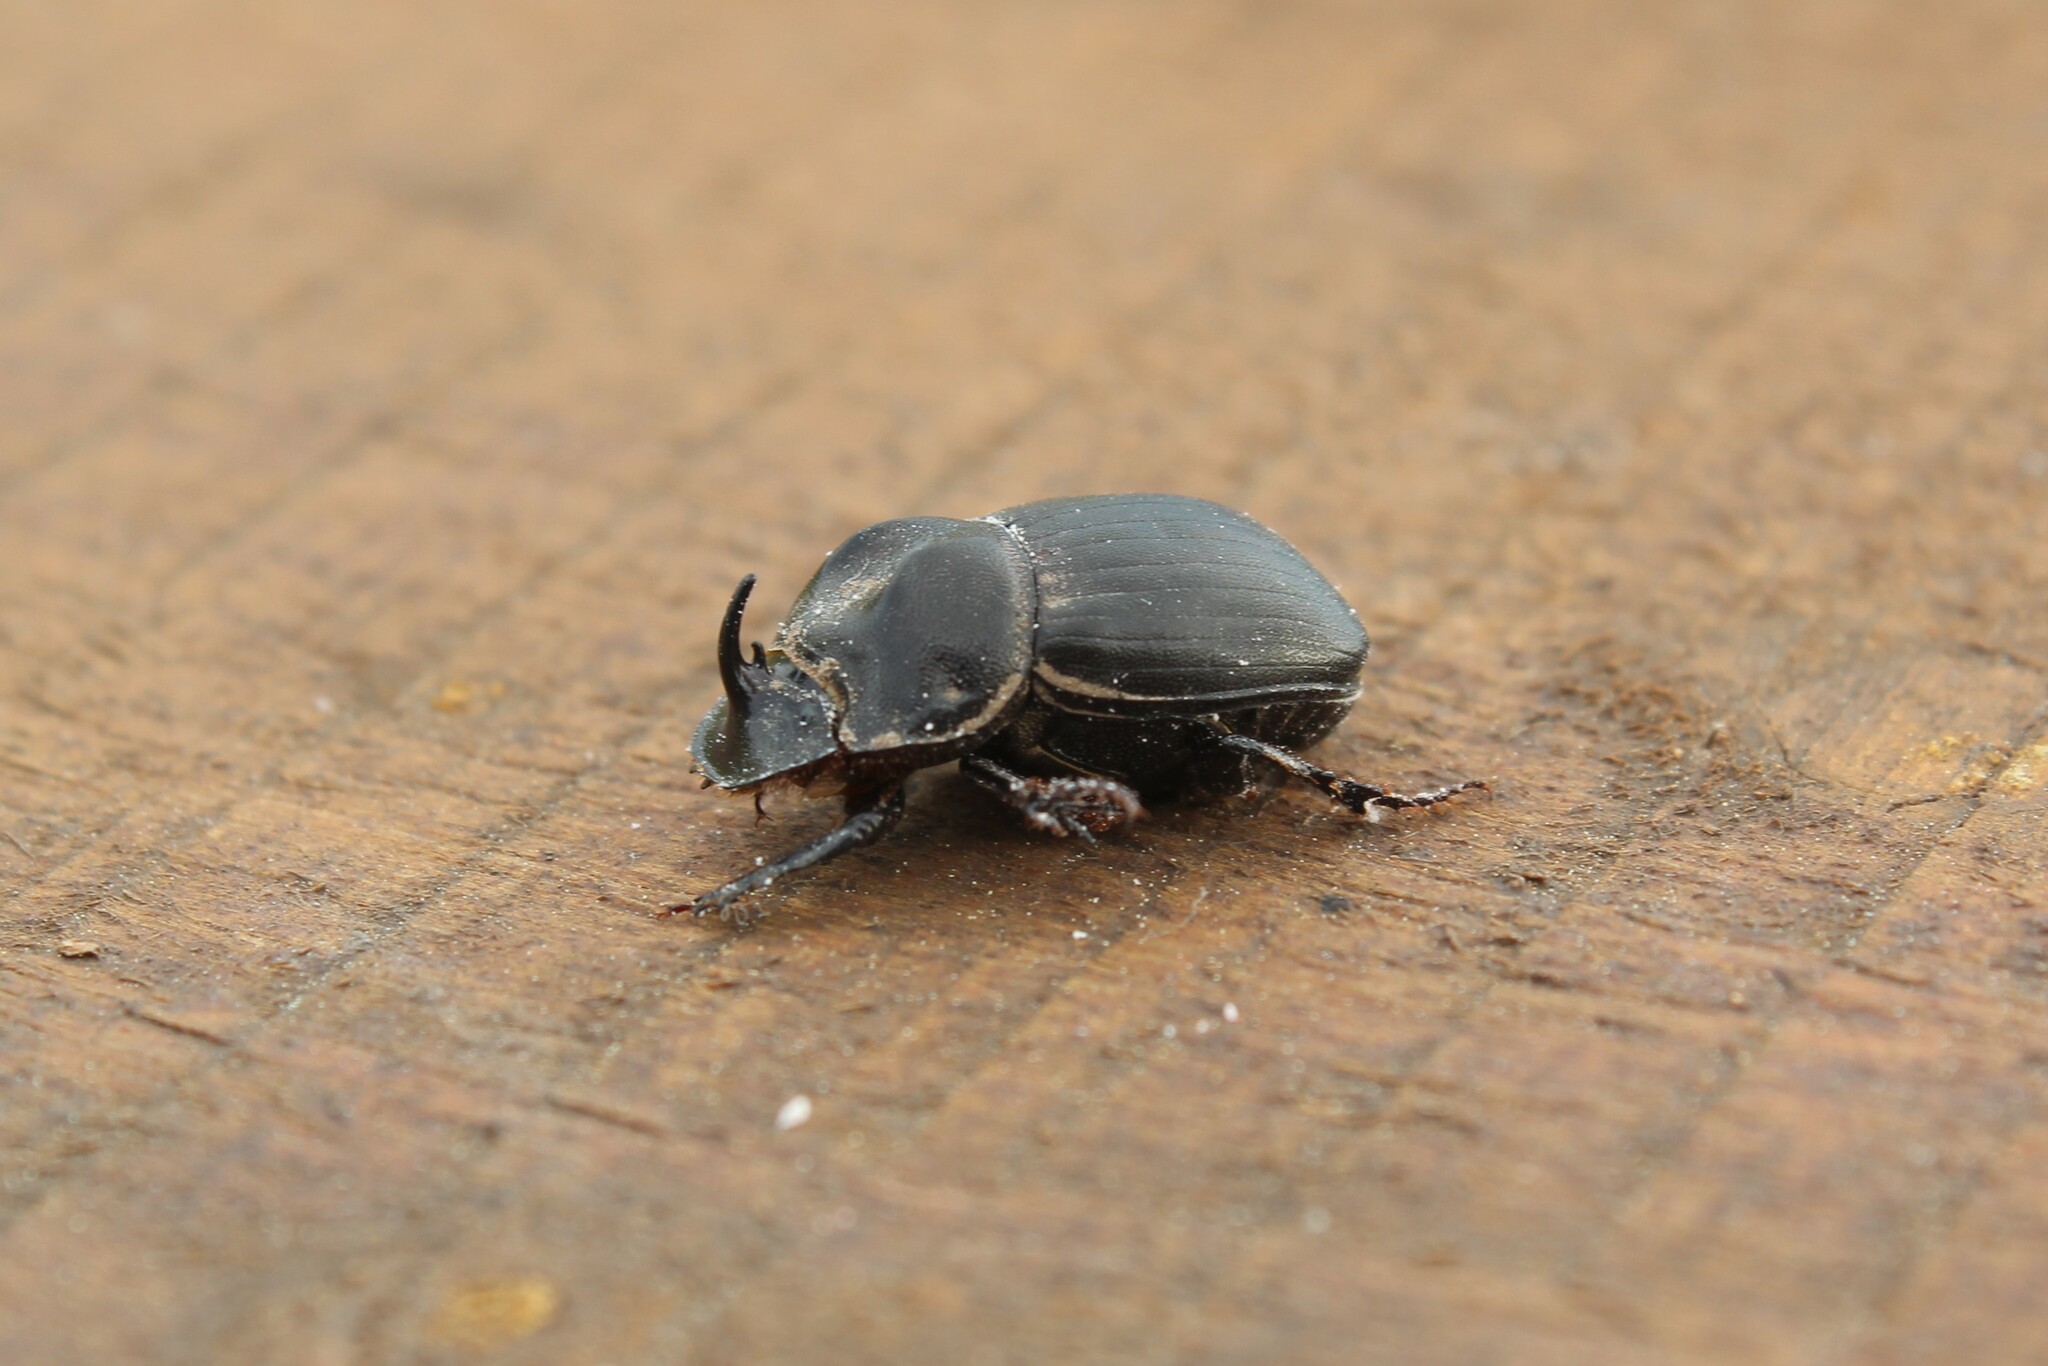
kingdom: Animalia
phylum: Arthropoda
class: Insecta
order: Coleoptera
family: Scarabaeidae
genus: Copris
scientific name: Copris fidius
